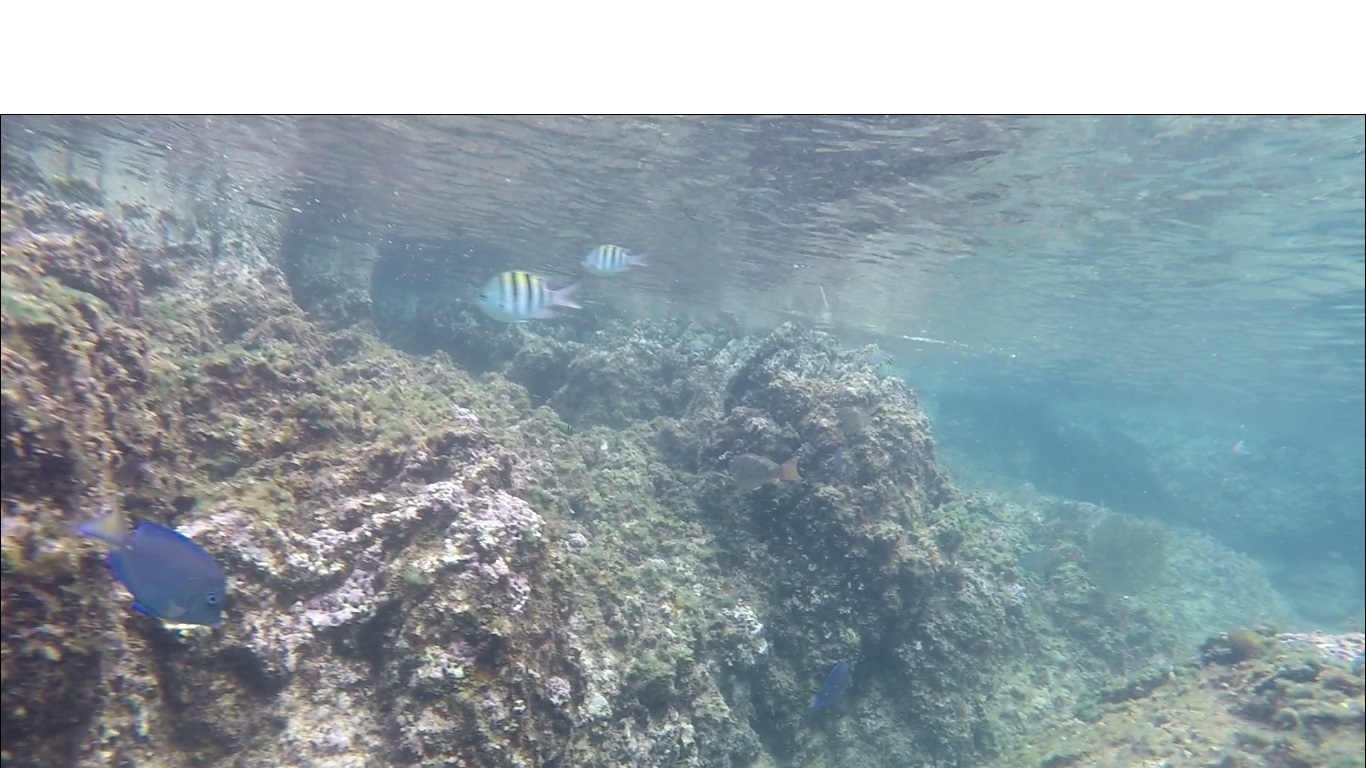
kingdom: Animalia
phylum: Chordata
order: Perciformes
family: Acanthuridae
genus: Acanthurus
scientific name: Acanthurus coeruleus
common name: Blue tang
